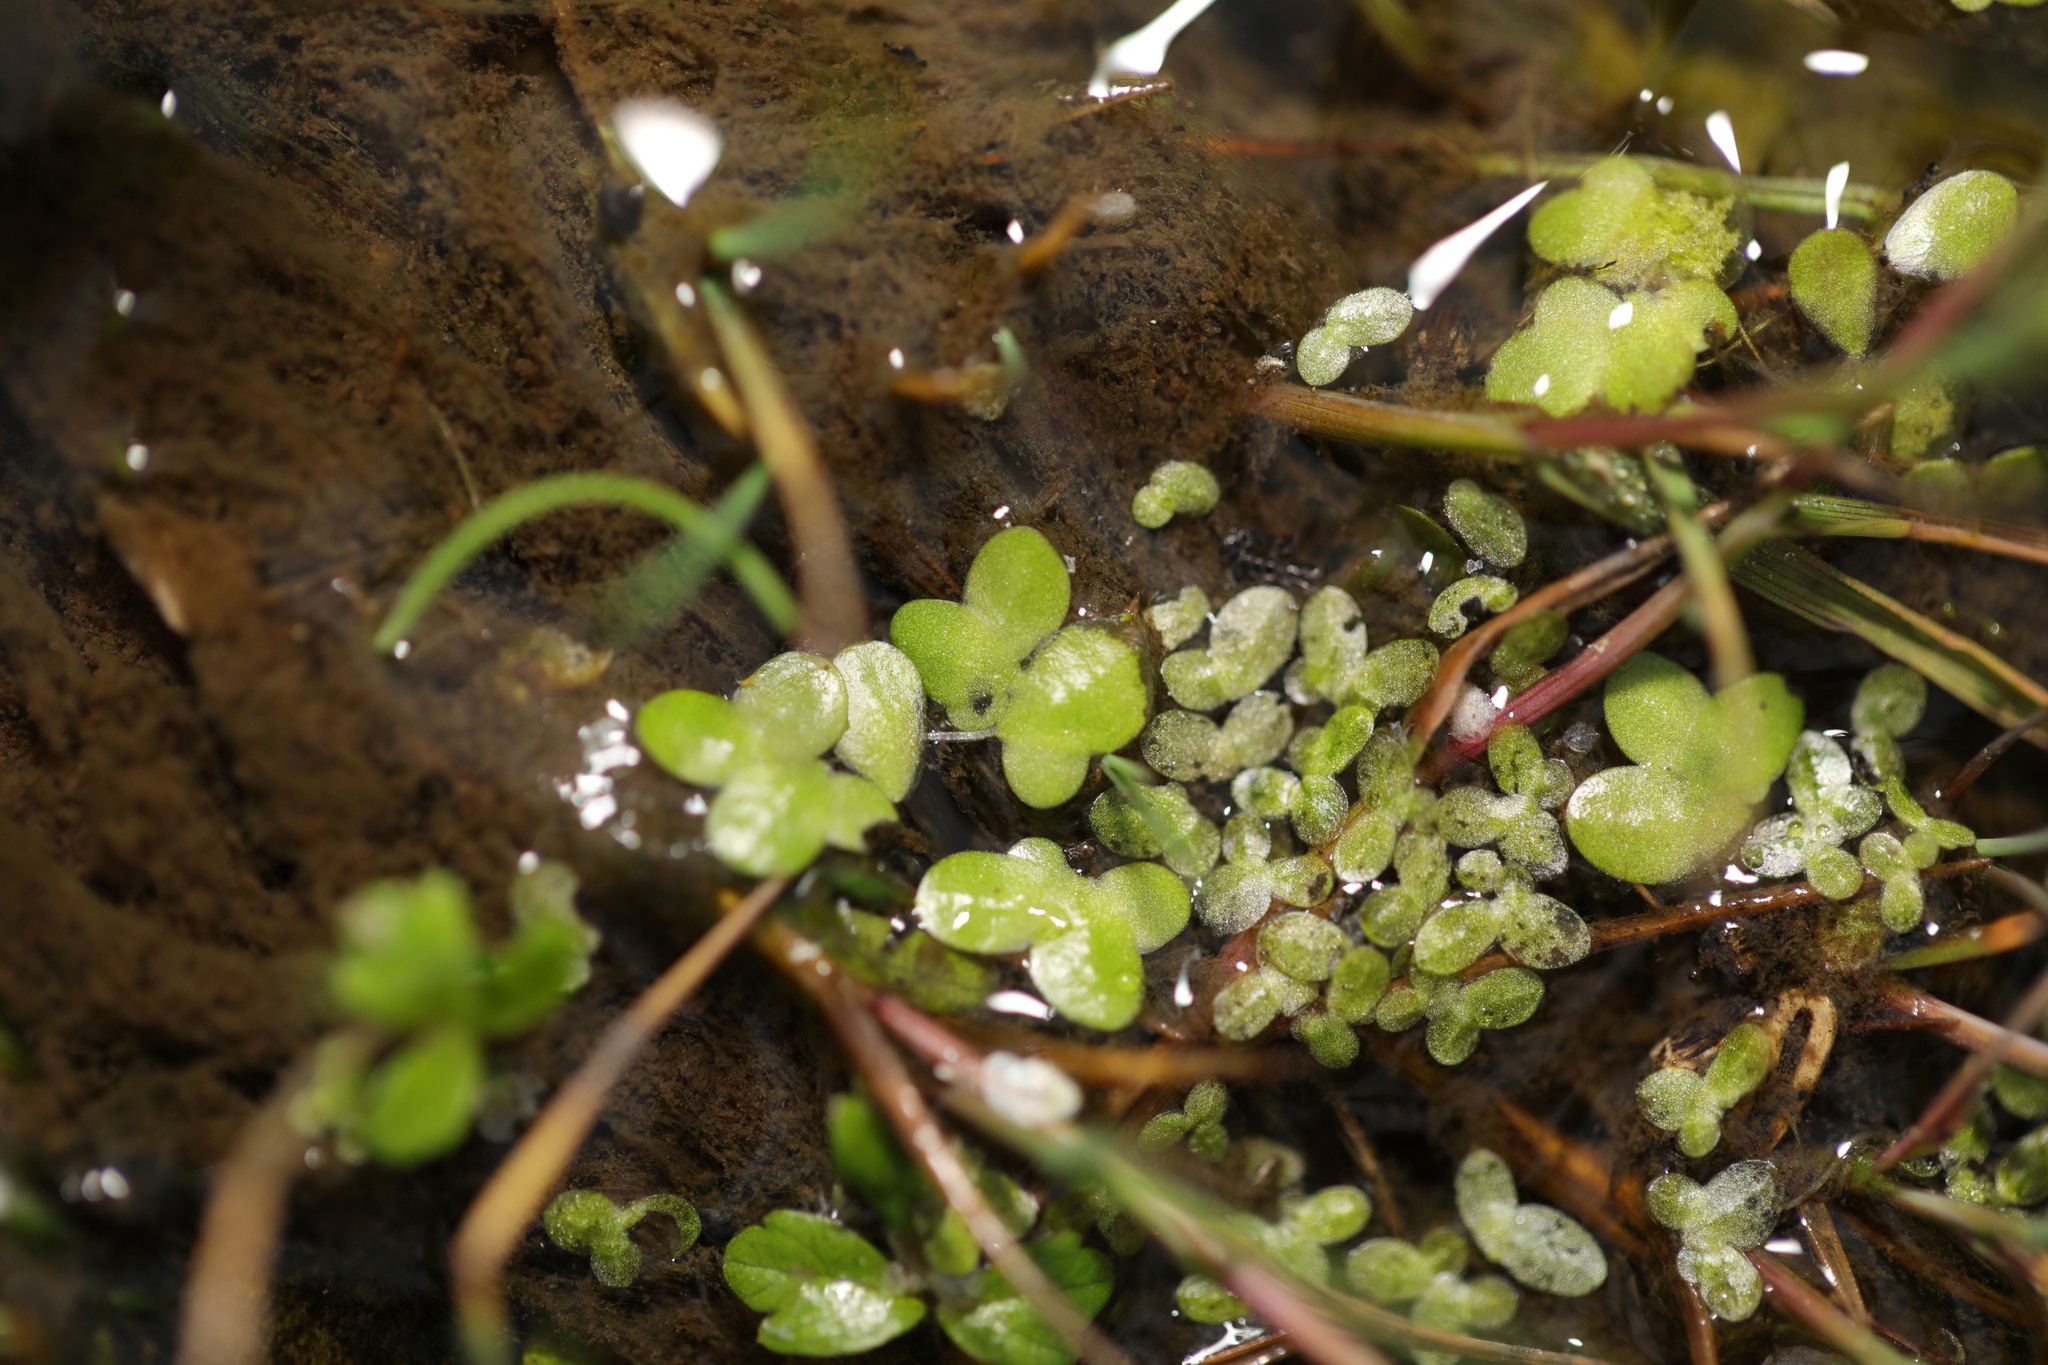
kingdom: Plantae
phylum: Tracheophyta
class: Liliopsida
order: Alismatales
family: Araceae
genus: Lemna
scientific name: Lemna minor
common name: Common duckweed
